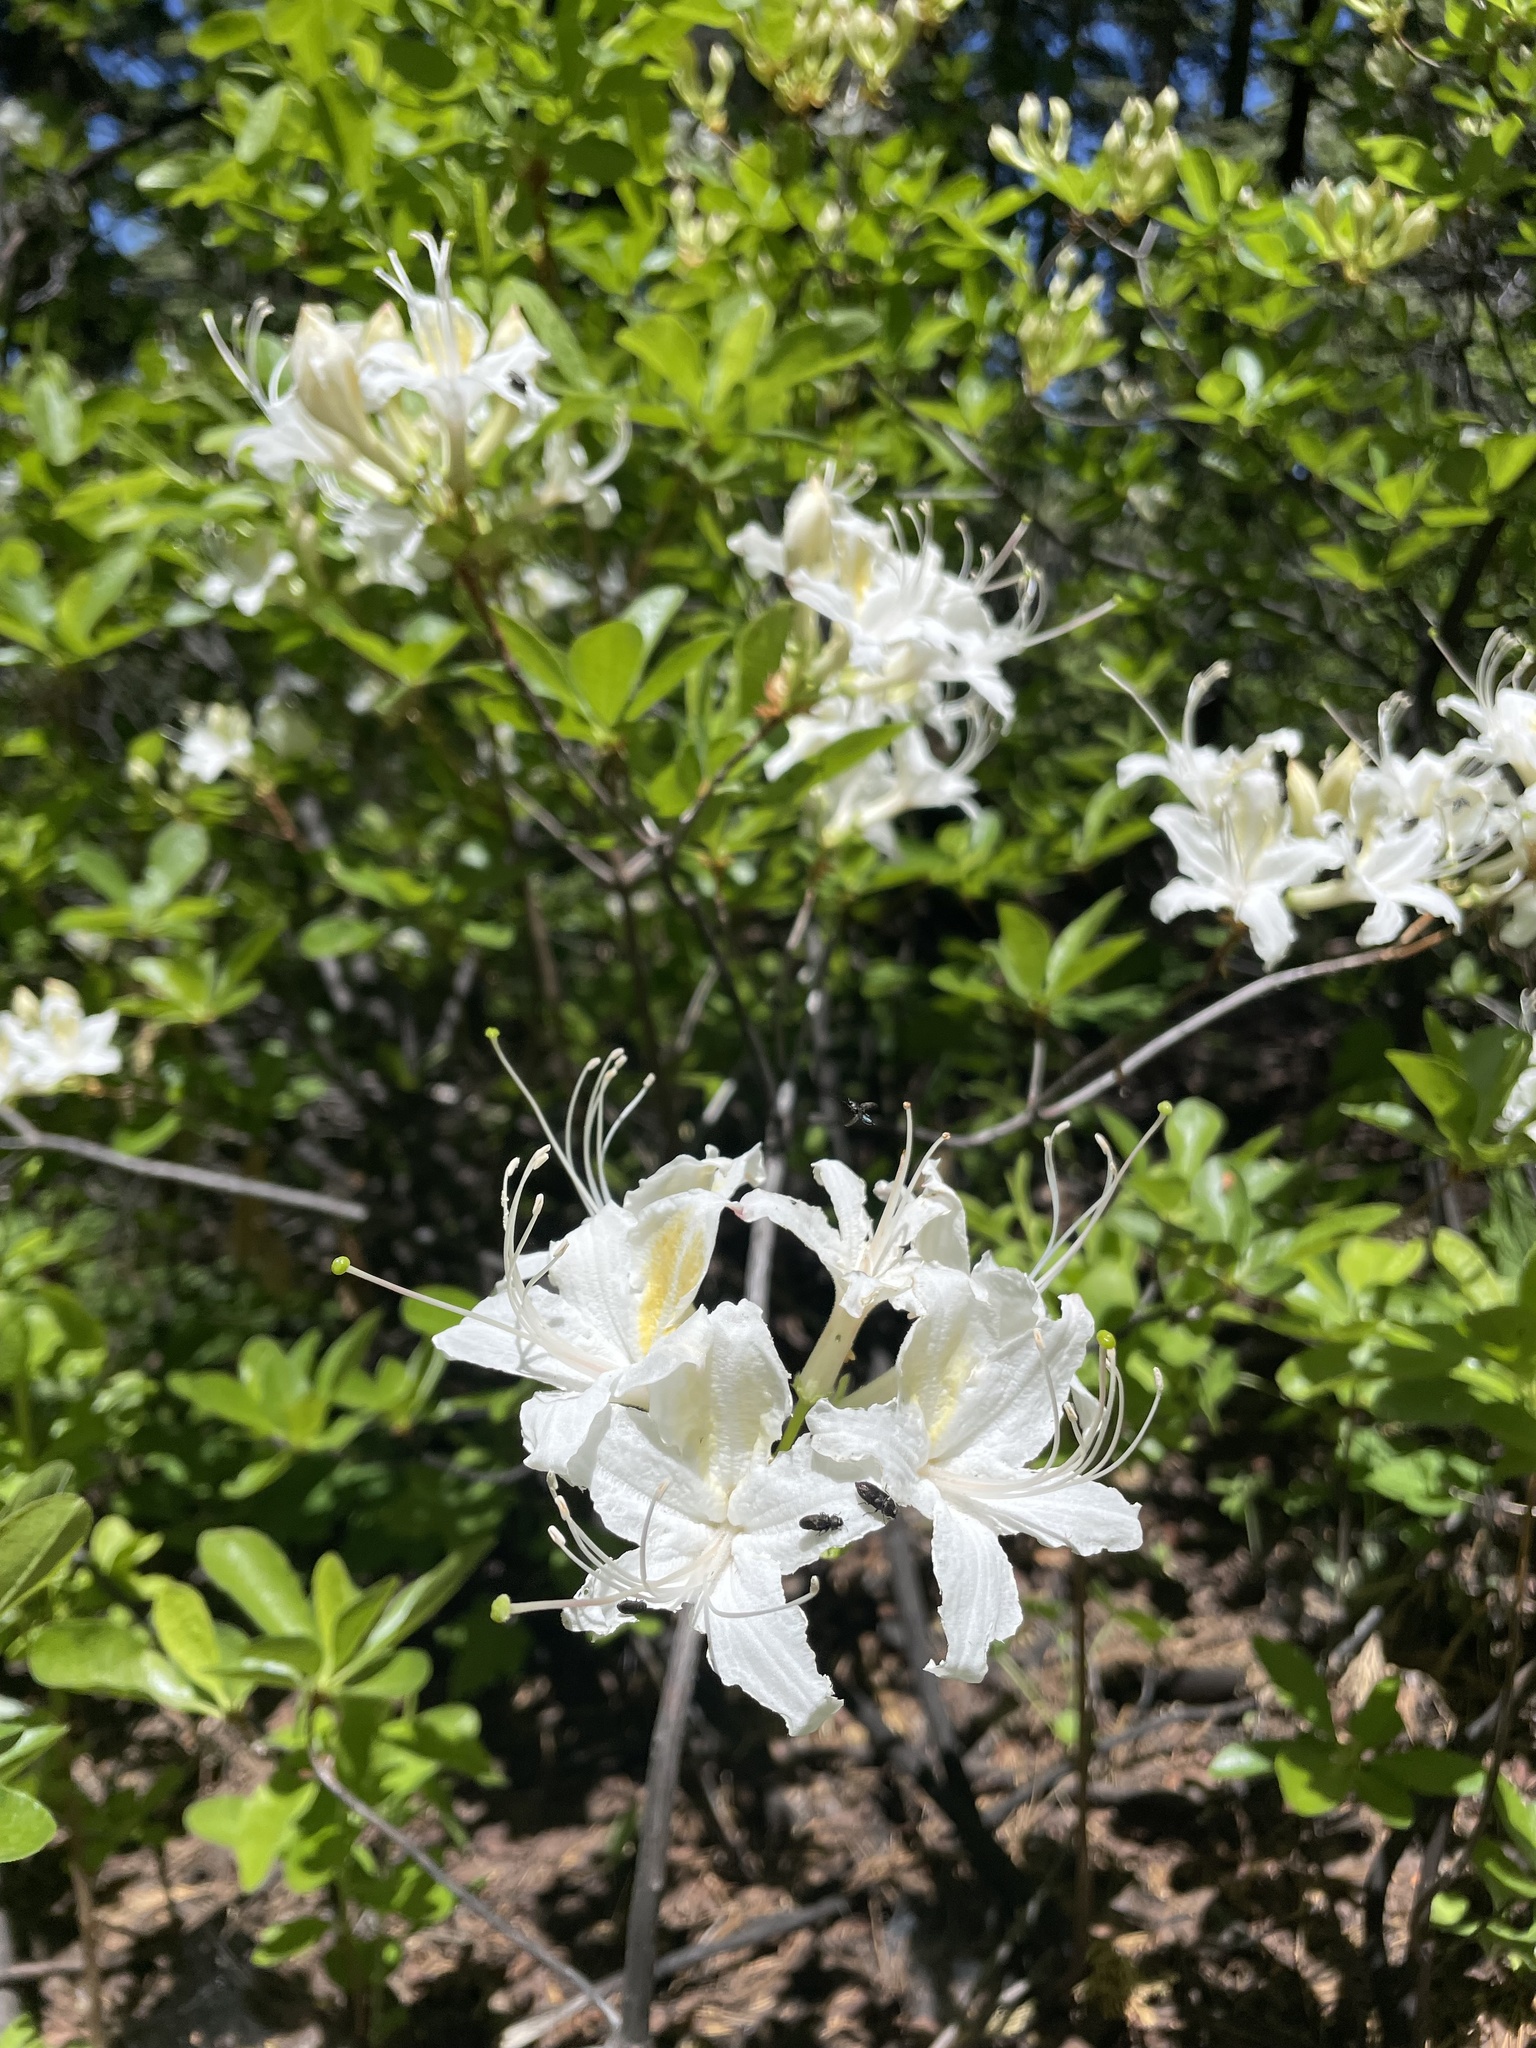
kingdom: Plantae
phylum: Tracheophyta
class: Magnoliopsida
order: Ericales
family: Ericaceae
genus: Rhododendron
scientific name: Rhododendron occidentale
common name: Western azalea
